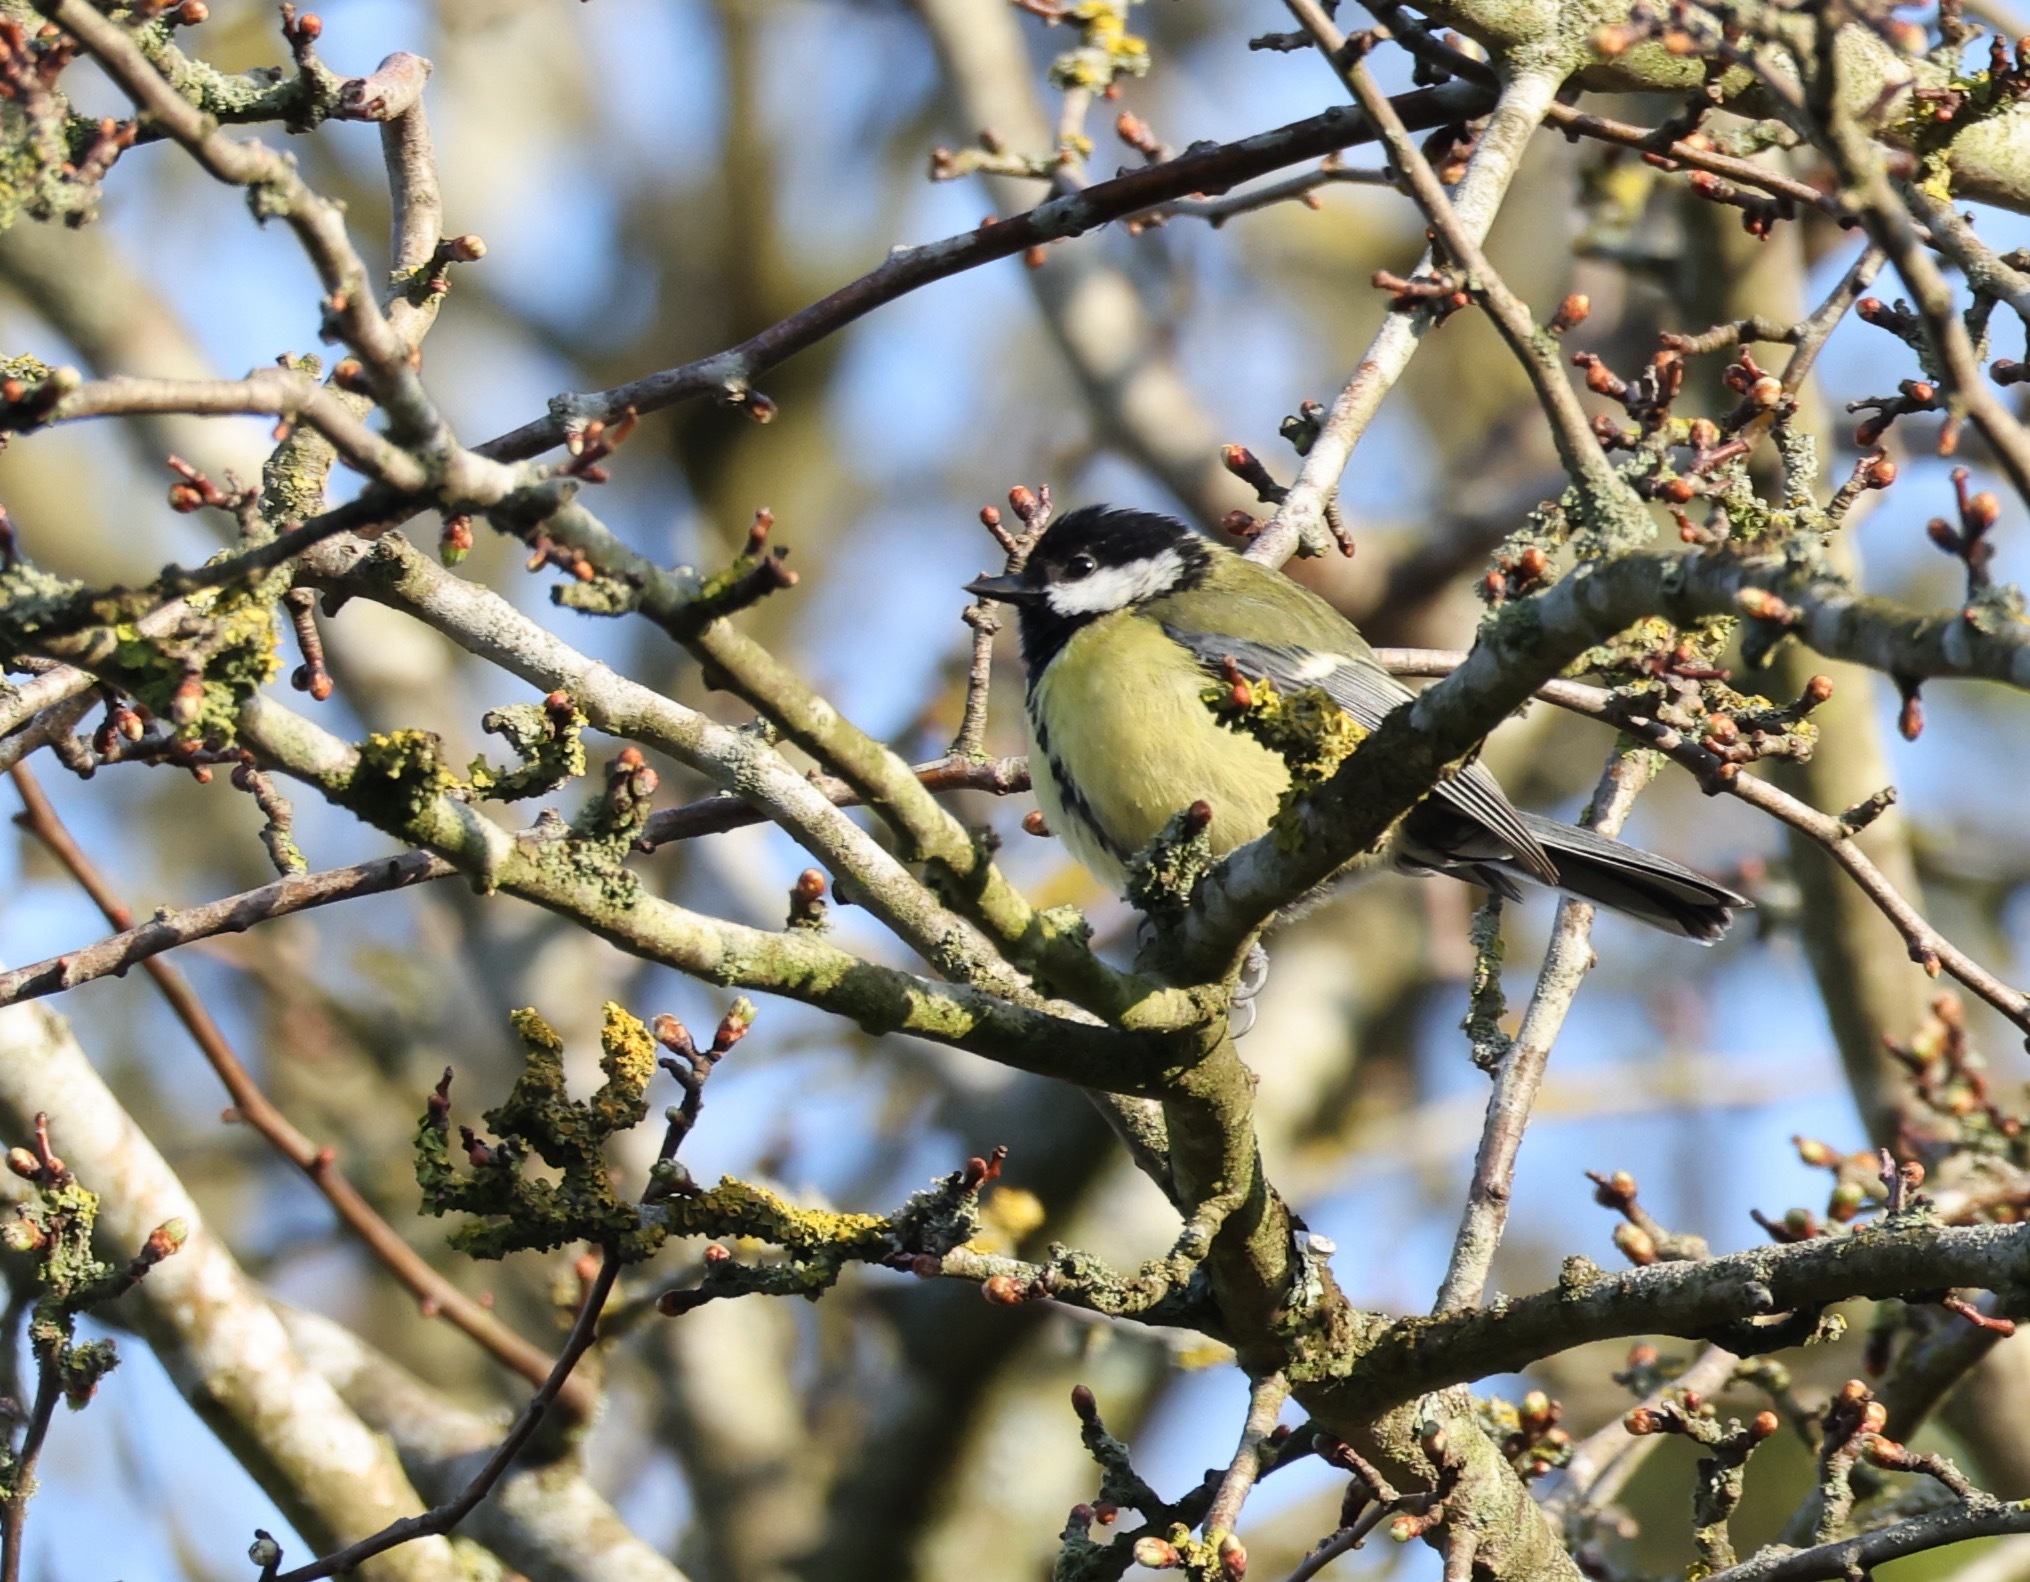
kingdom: Animalia
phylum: Chordata
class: Aves
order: Passeriformes
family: Paridae
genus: Parus
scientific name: Parus major
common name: Great tit
